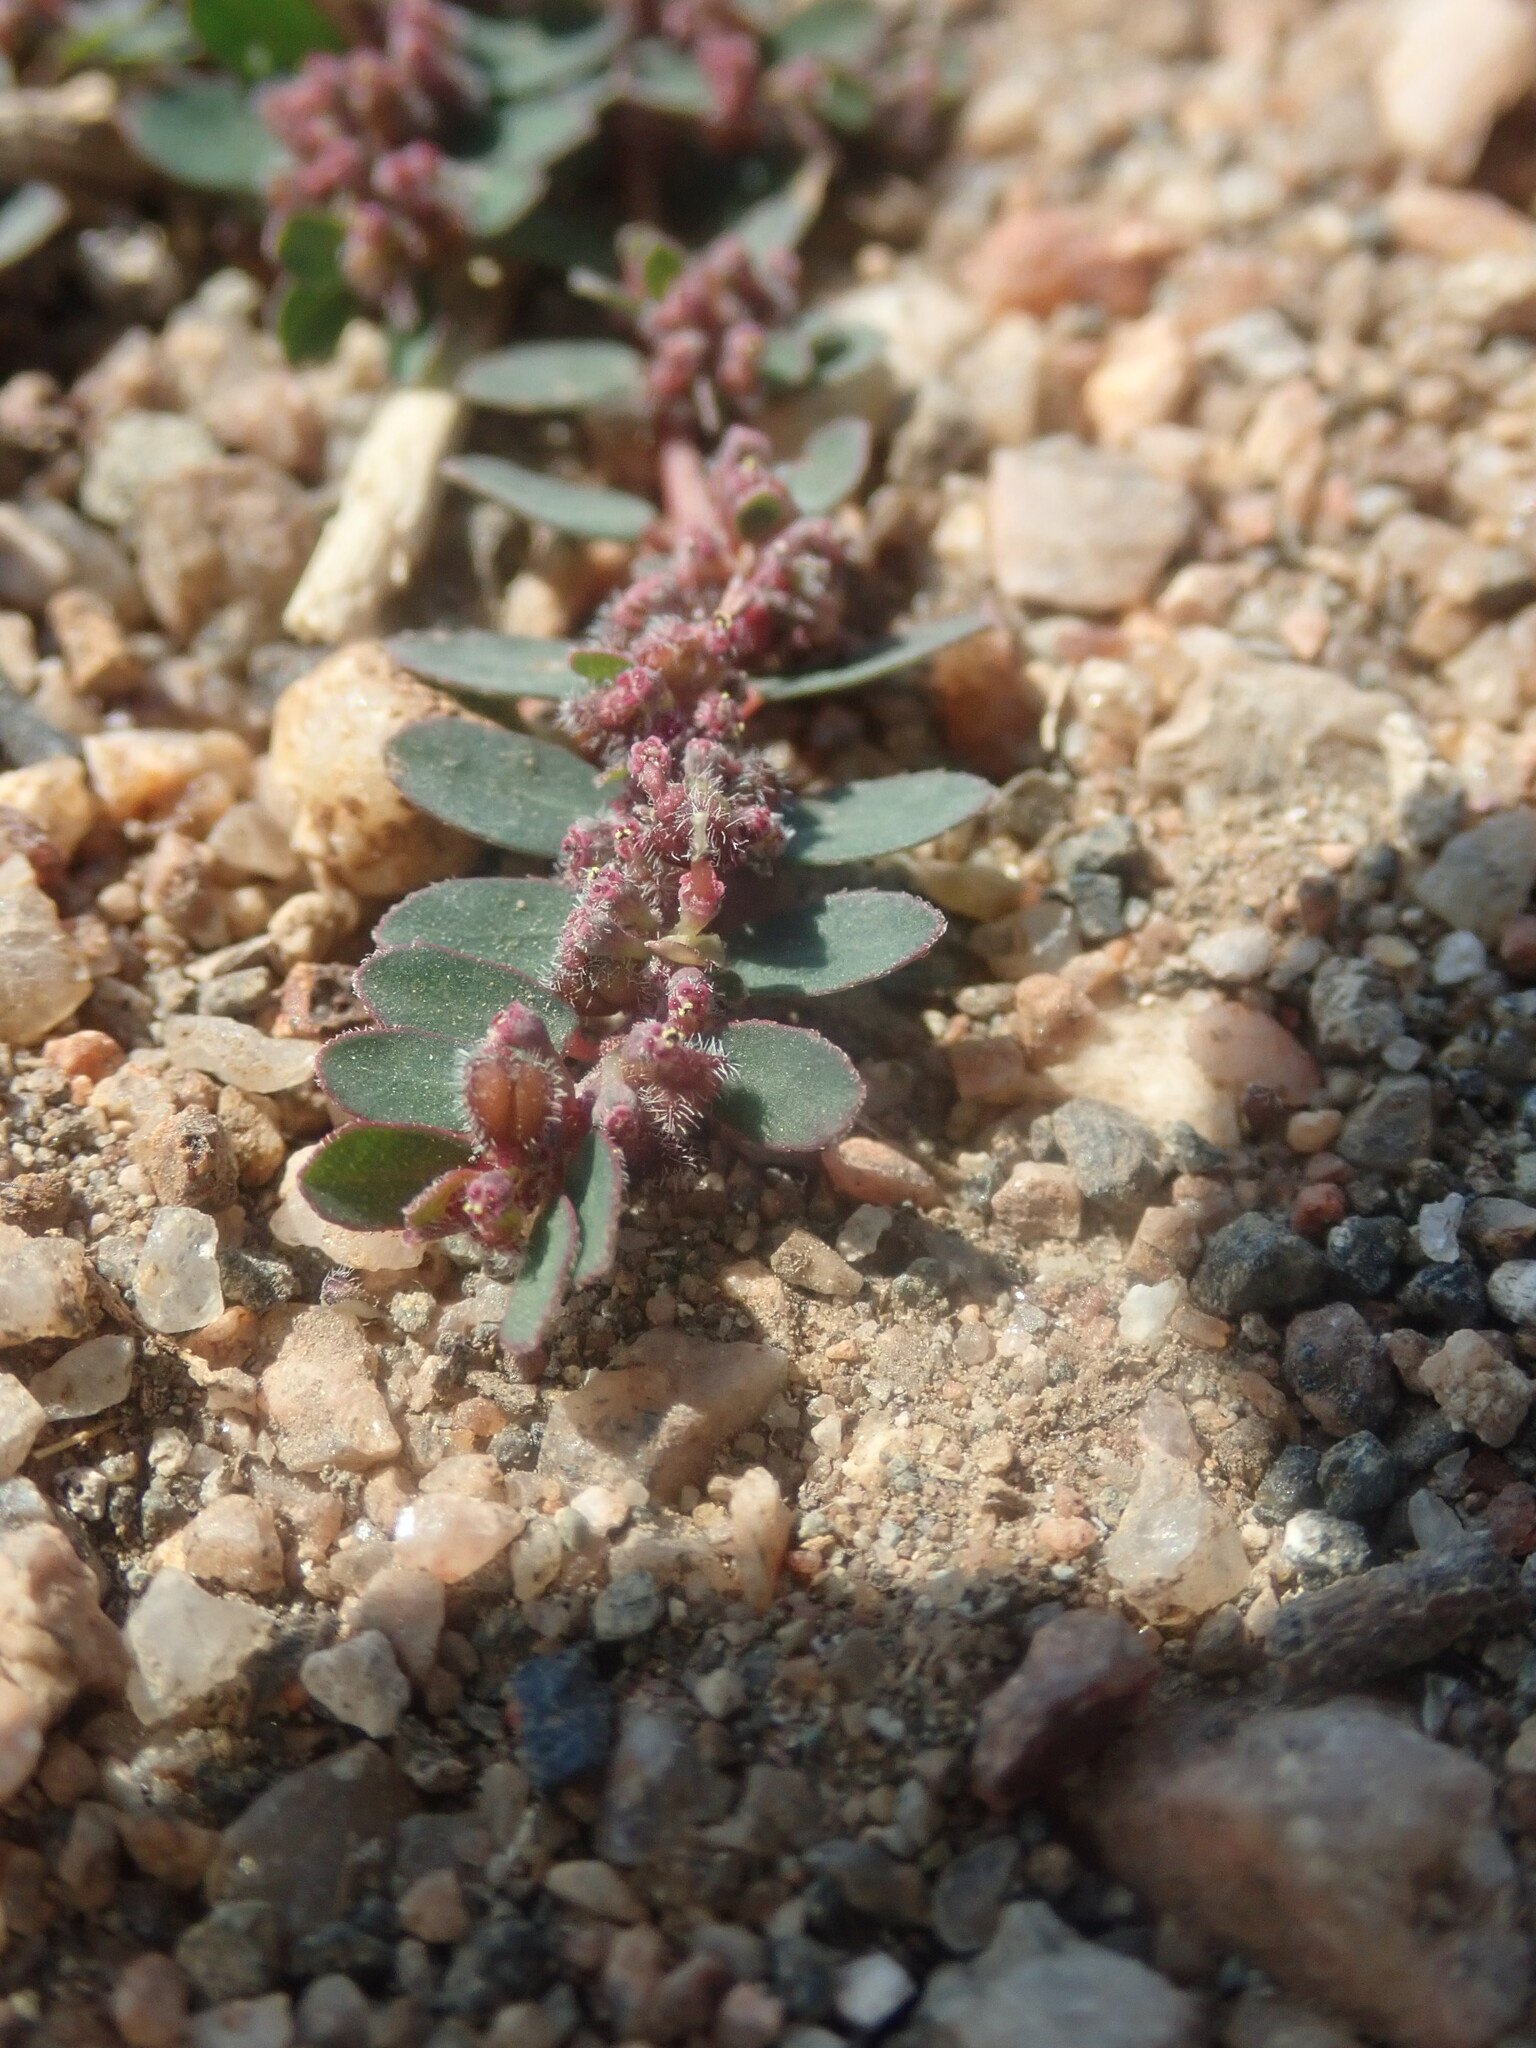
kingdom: Plantae
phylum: Tracheophyta
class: Magnoliopsida
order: Malpighiales
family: Euphorbiaceae
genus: Euphorbia
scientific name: Euphorbia prostrata
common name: Prostrate sandmat
